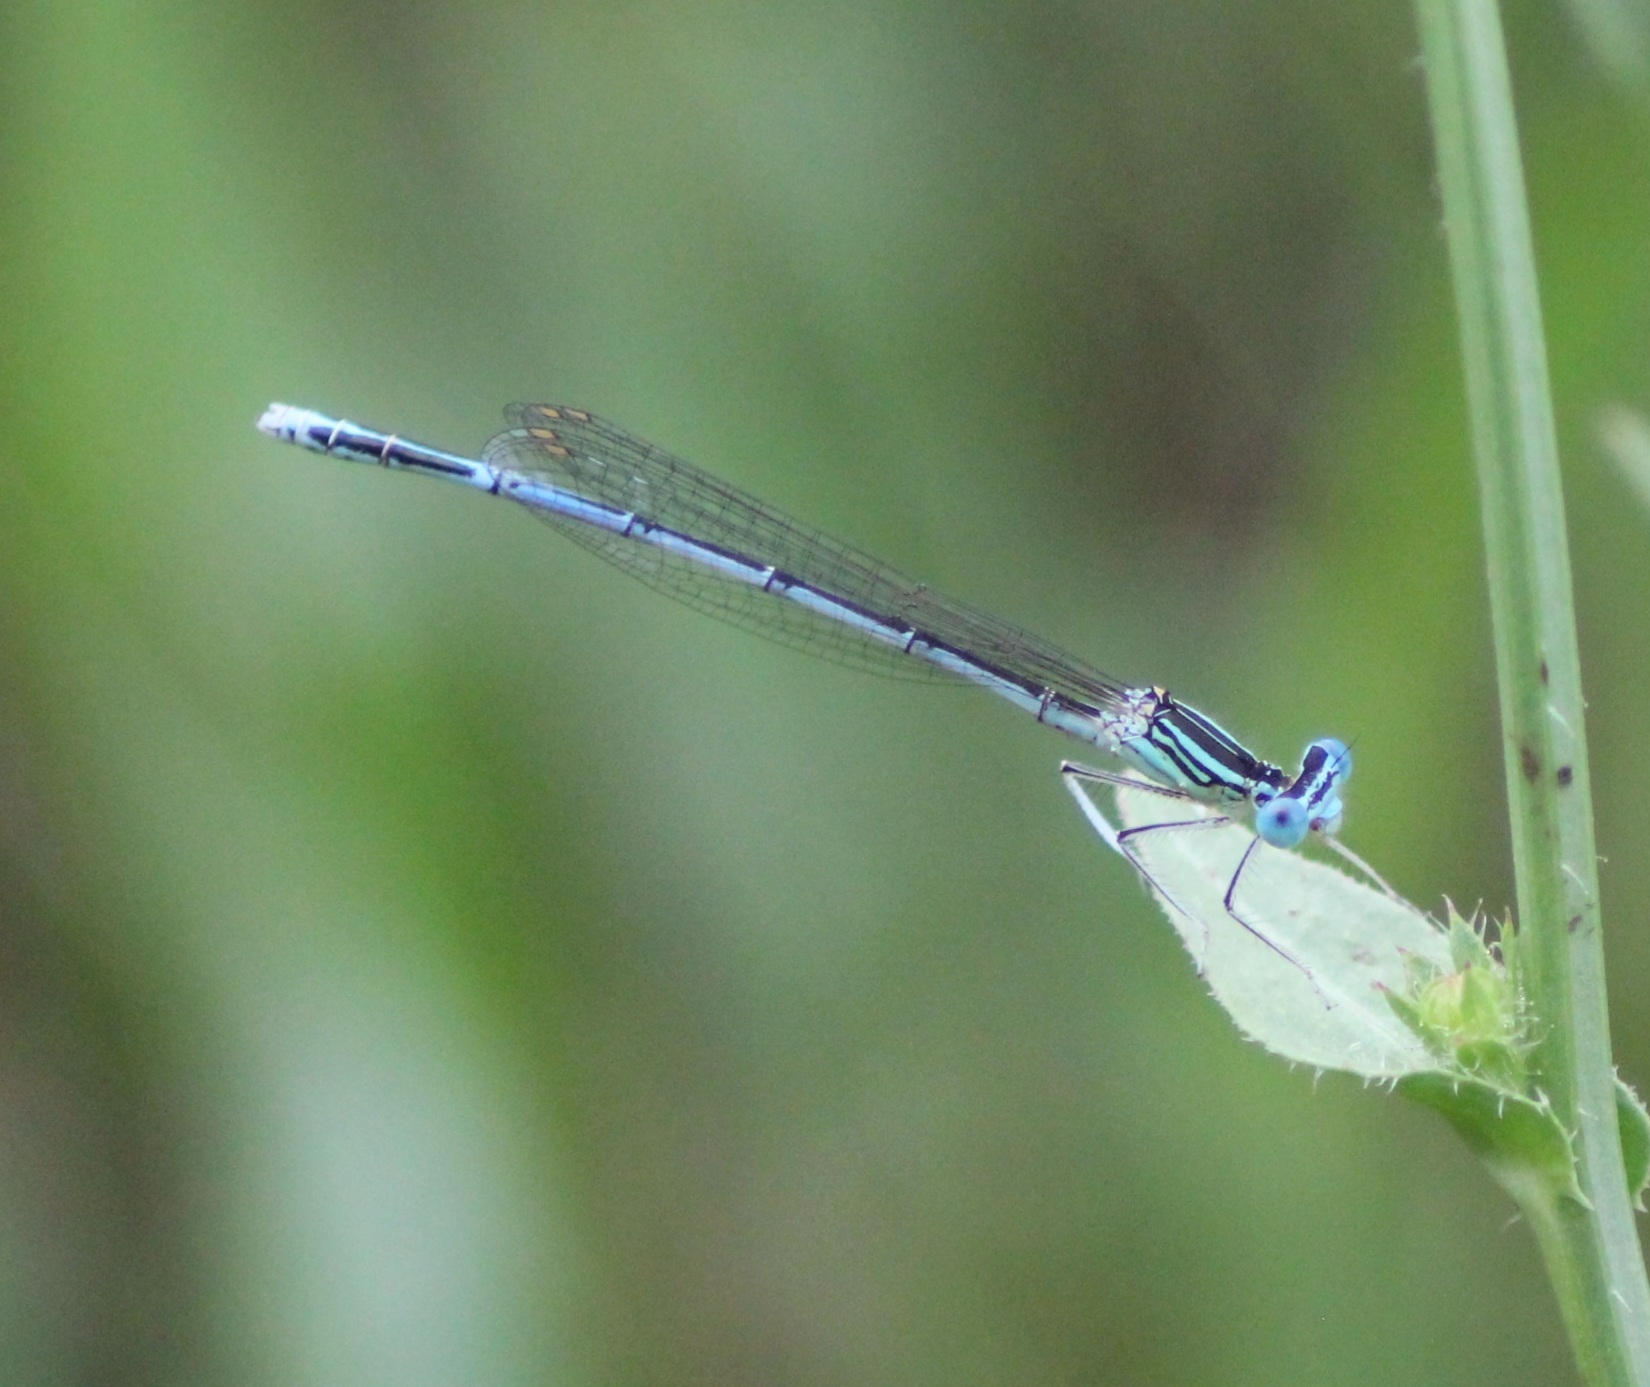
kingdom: Animalia
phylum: Arthropoda
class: Insecta
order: Odonata
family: Platycnemididae
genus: Platycnemis
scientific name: Platycnemis pennipes
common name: White-legged damselfly
